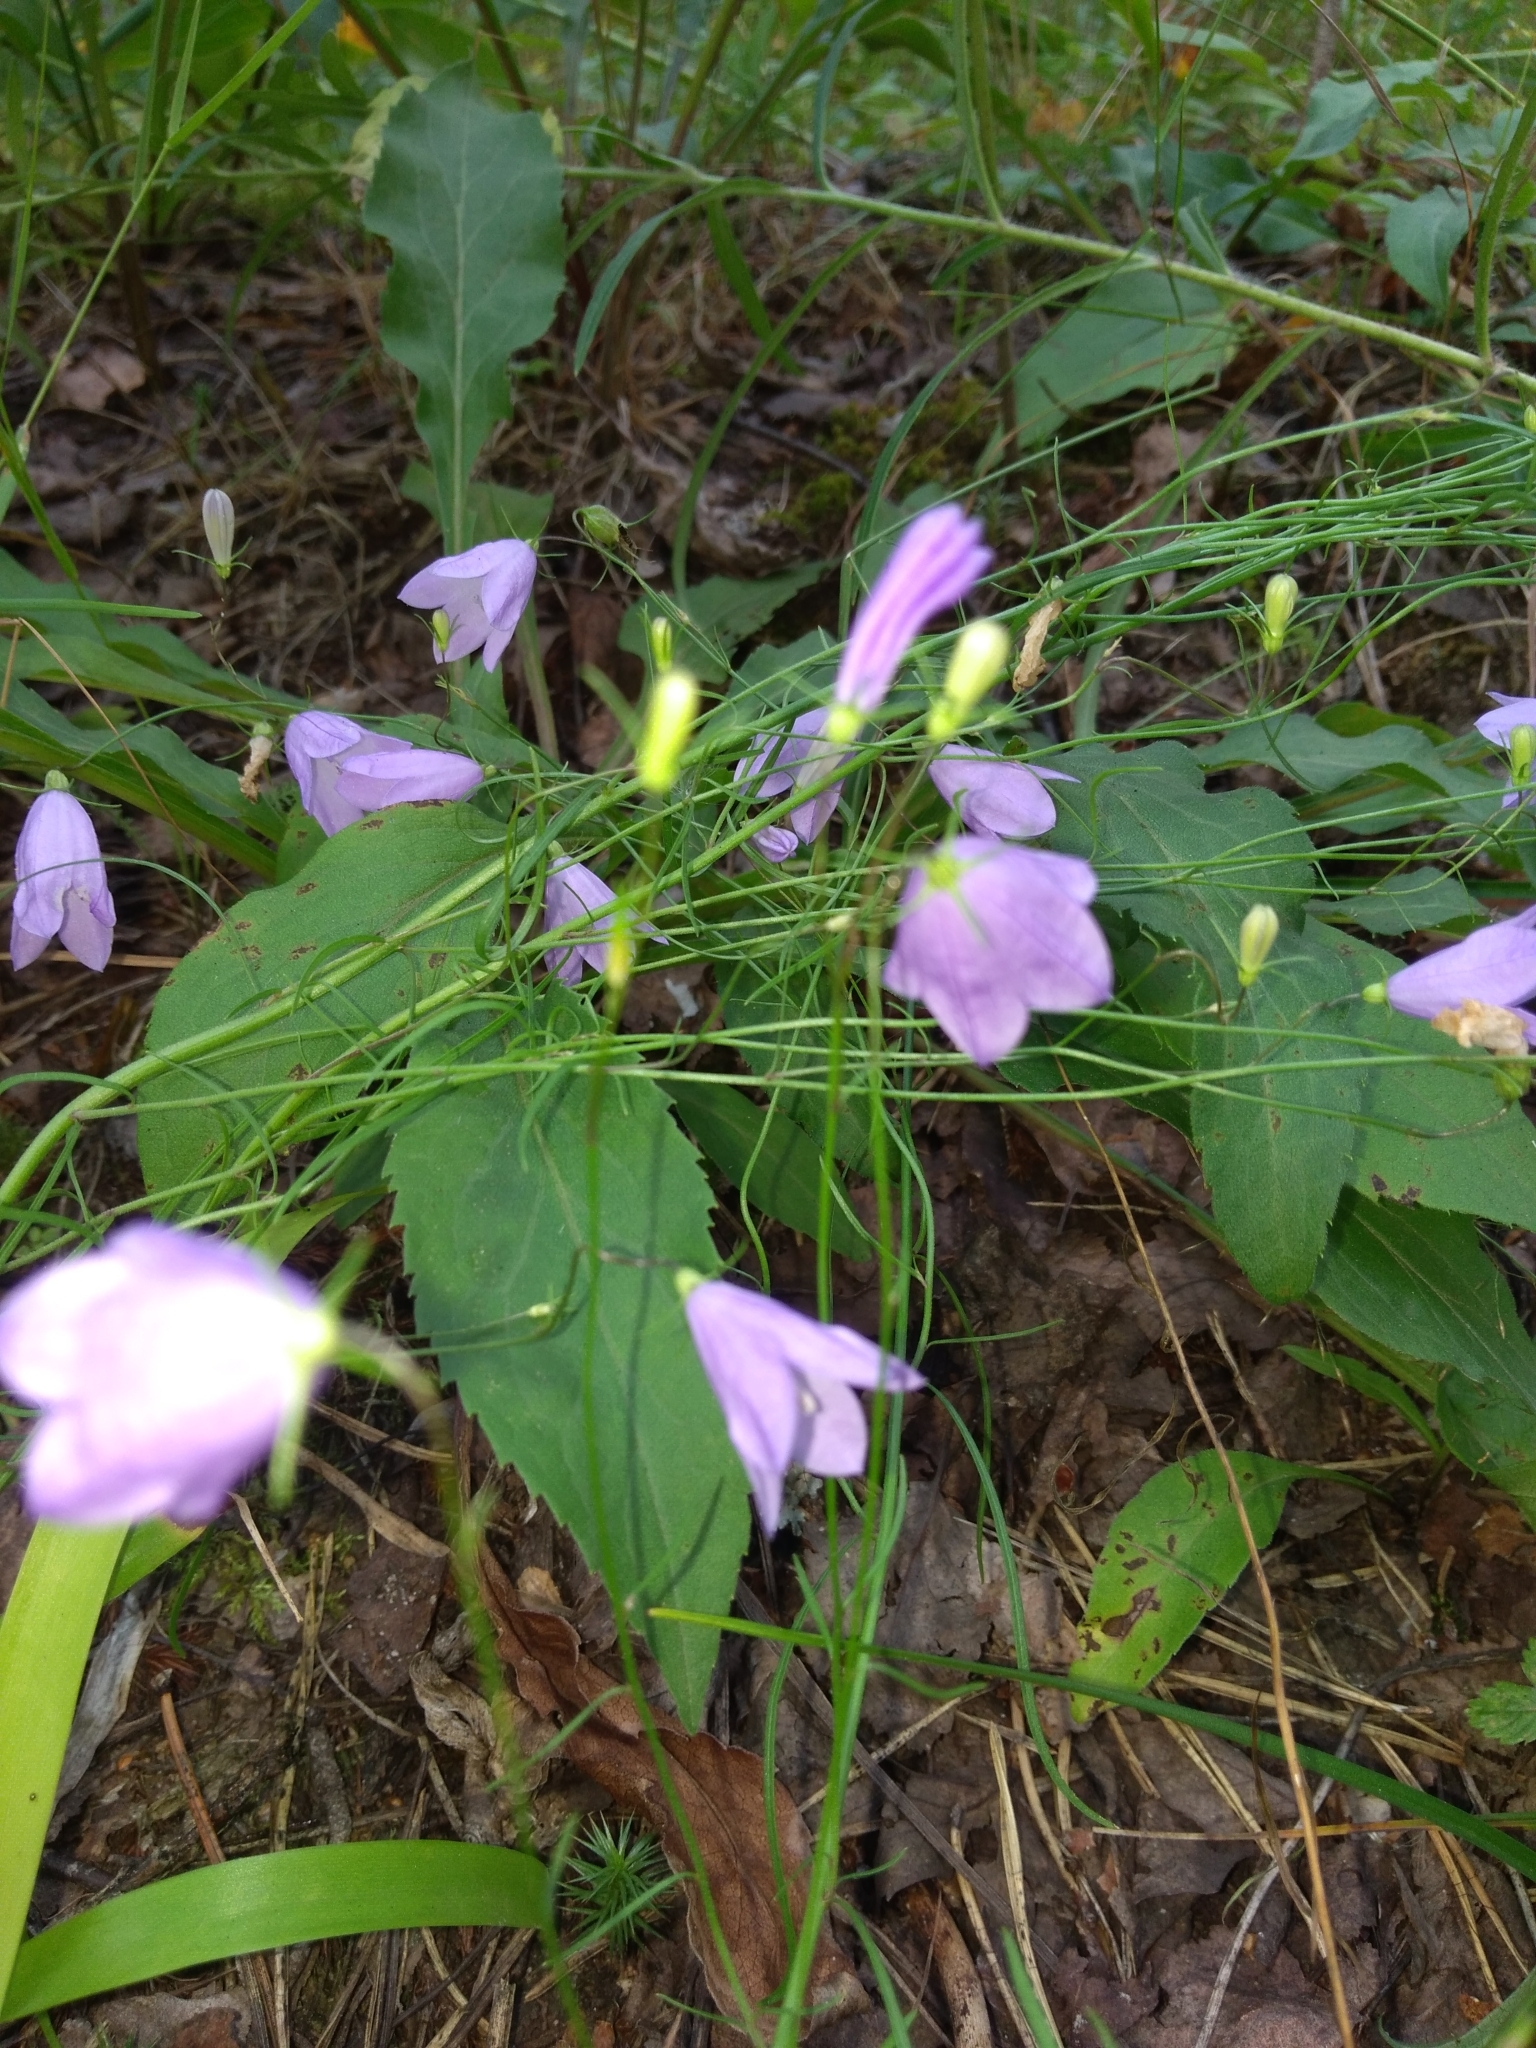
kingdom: Plantae
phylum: Tracheophyta
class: Magnoliopsida
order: Asterales
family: Campanulaceae
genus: Campanula
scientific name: Campanula rotundifolia
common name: Harebell
